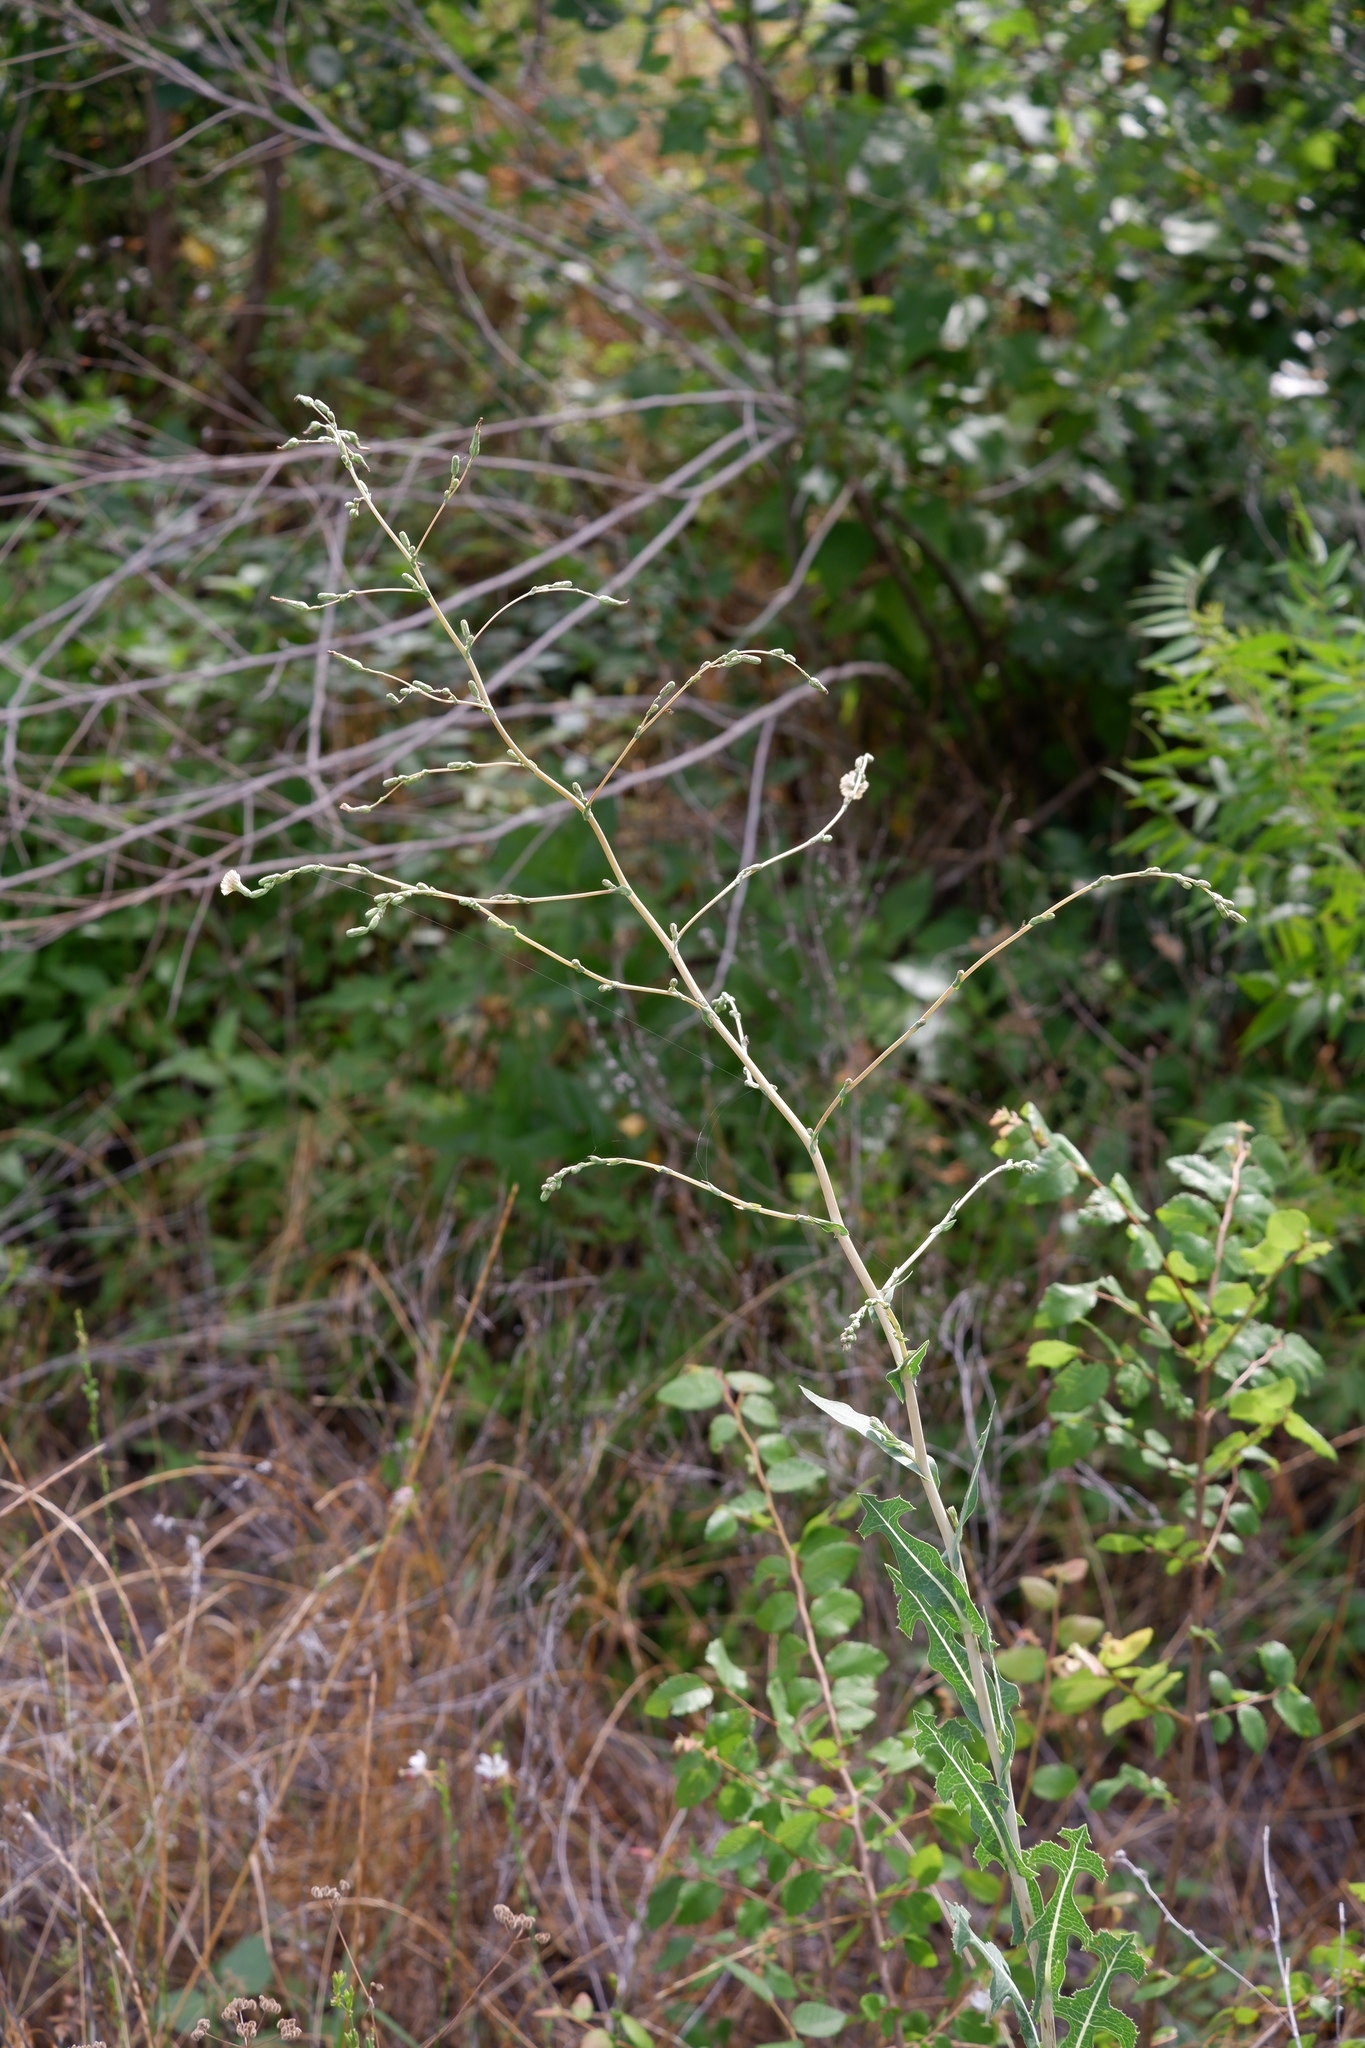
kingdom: Plantae
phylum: Tracheophyta
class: Magnoliopsida
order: Asterales
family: Asteraceae
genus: Lactuca
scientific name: Lactuca serriola
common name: Prickly lettuce
